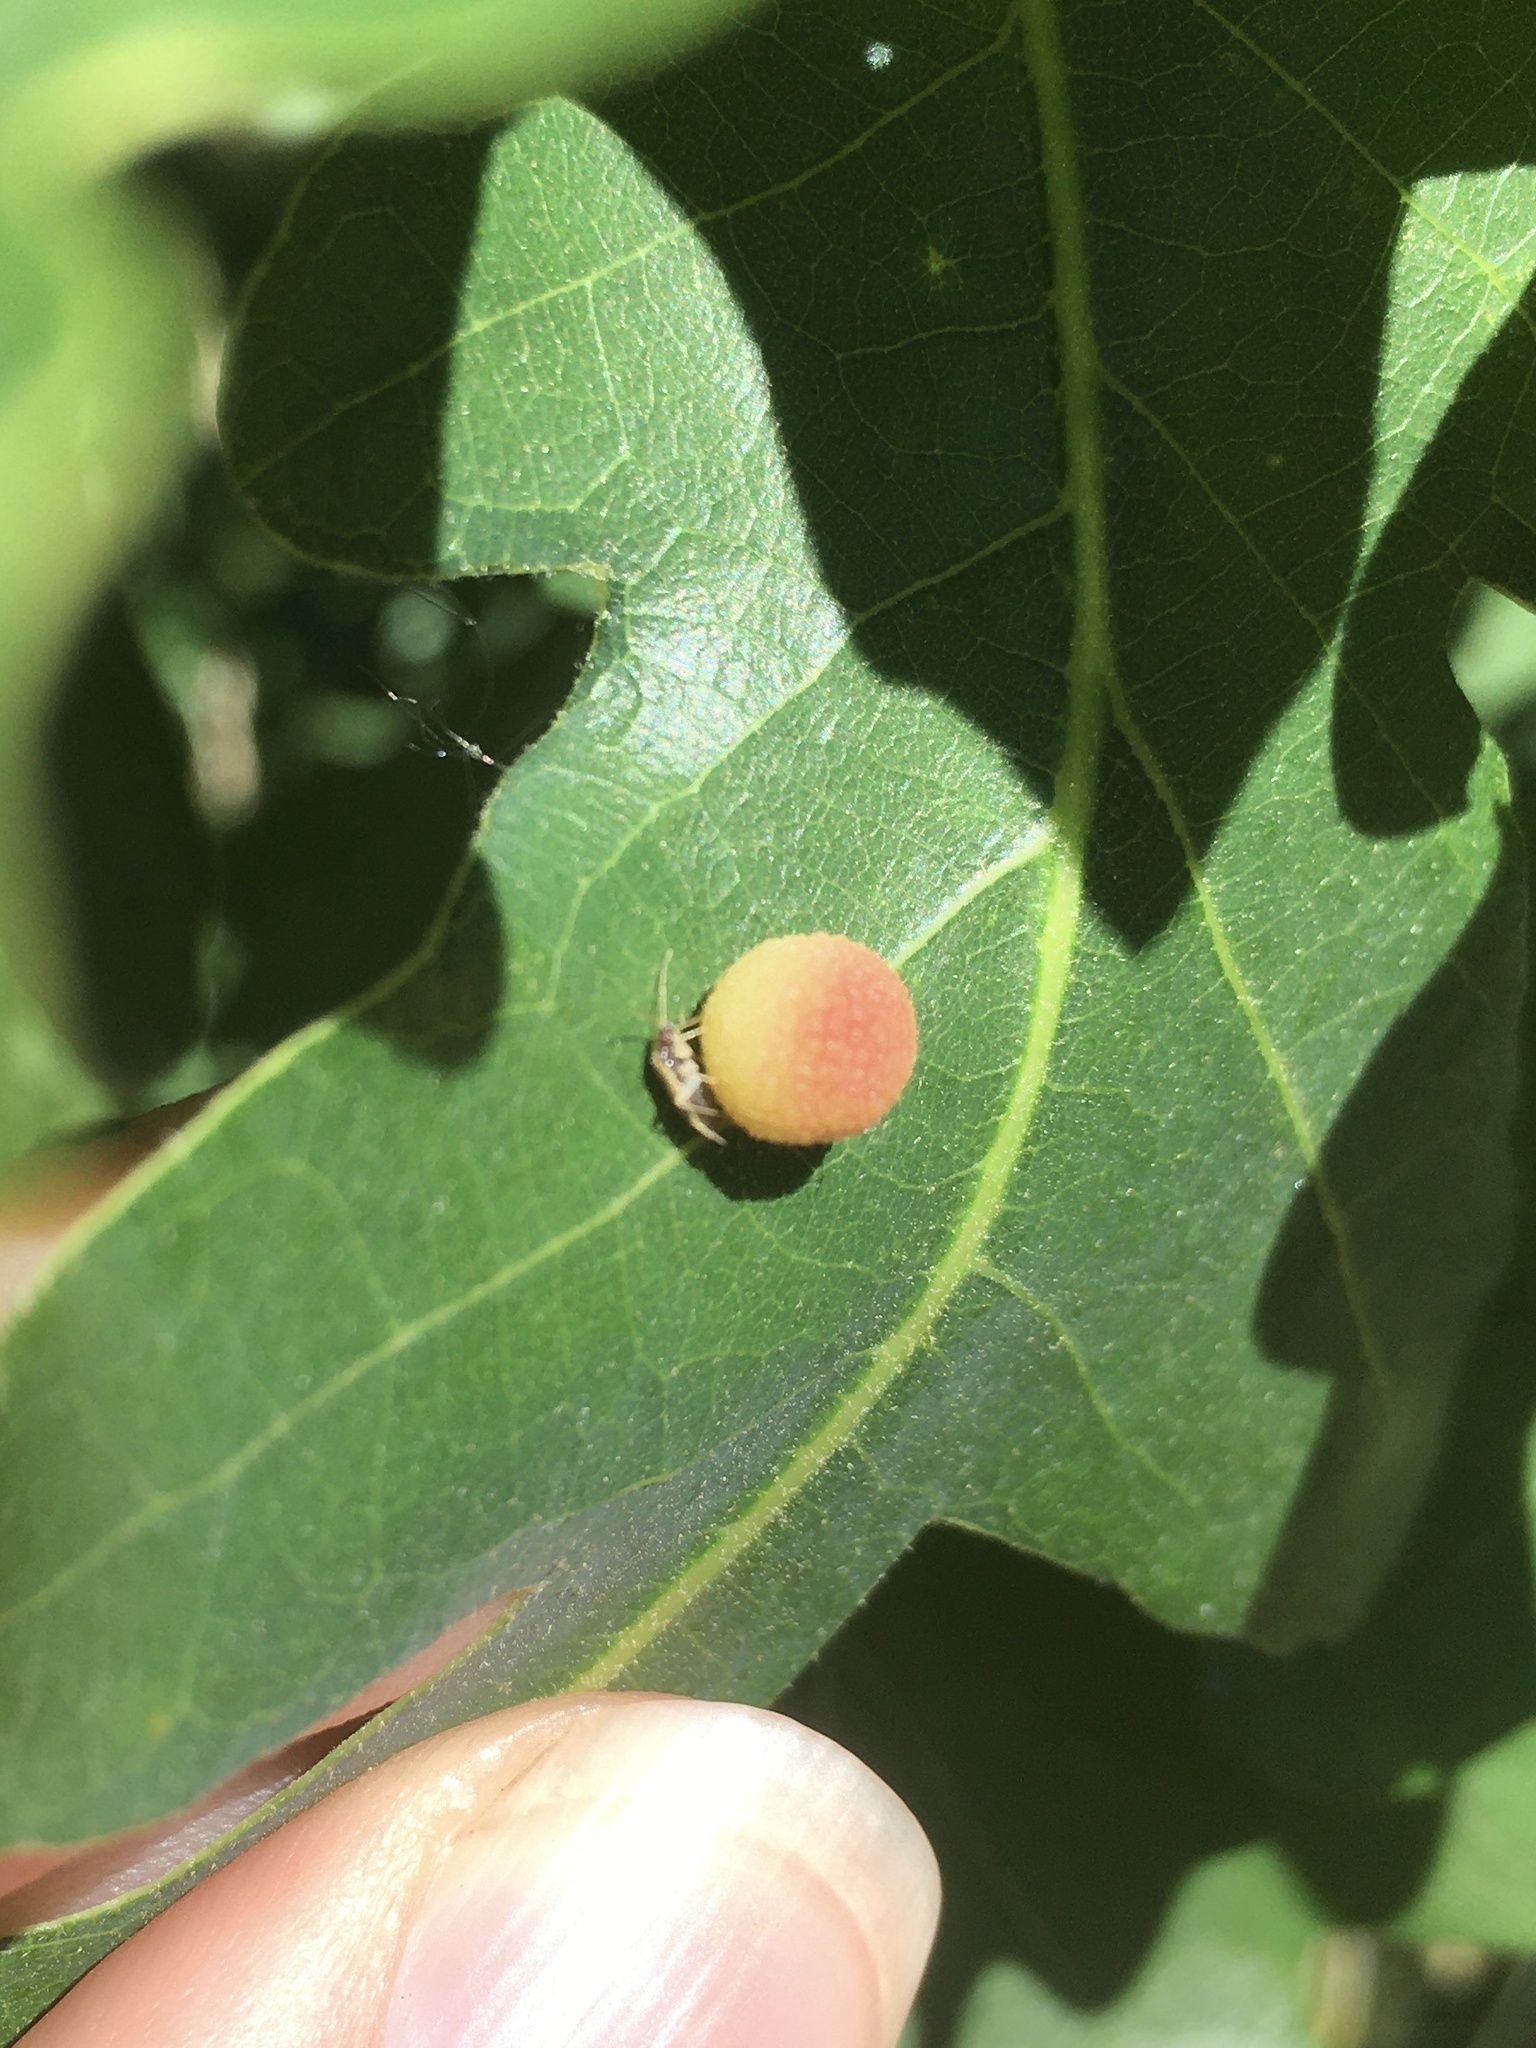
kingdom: Animalia
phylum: Arthropoda
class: Insecta
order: Hymenoptera
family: Cynipidae
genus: Acraspis
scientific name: Acraspis quercushirta
